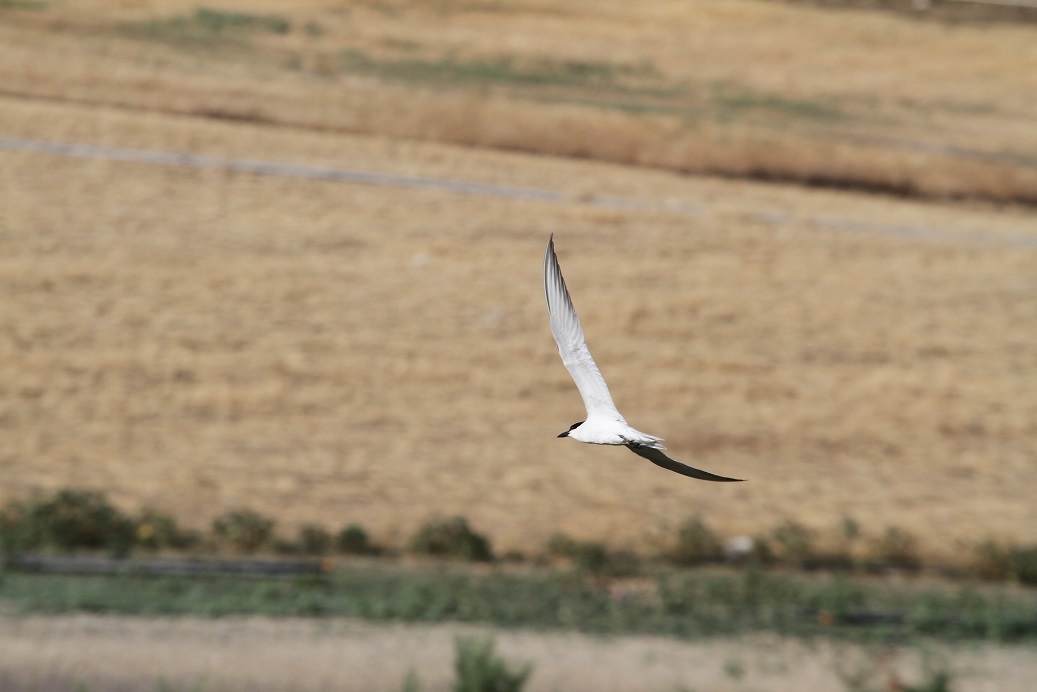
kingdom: Animalia
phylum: Chordata
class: Aves
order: Charadriiformes
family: Laridae
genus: Gelochelidon
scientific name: Gelochelidon nilotica
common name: Gull-billed tern
